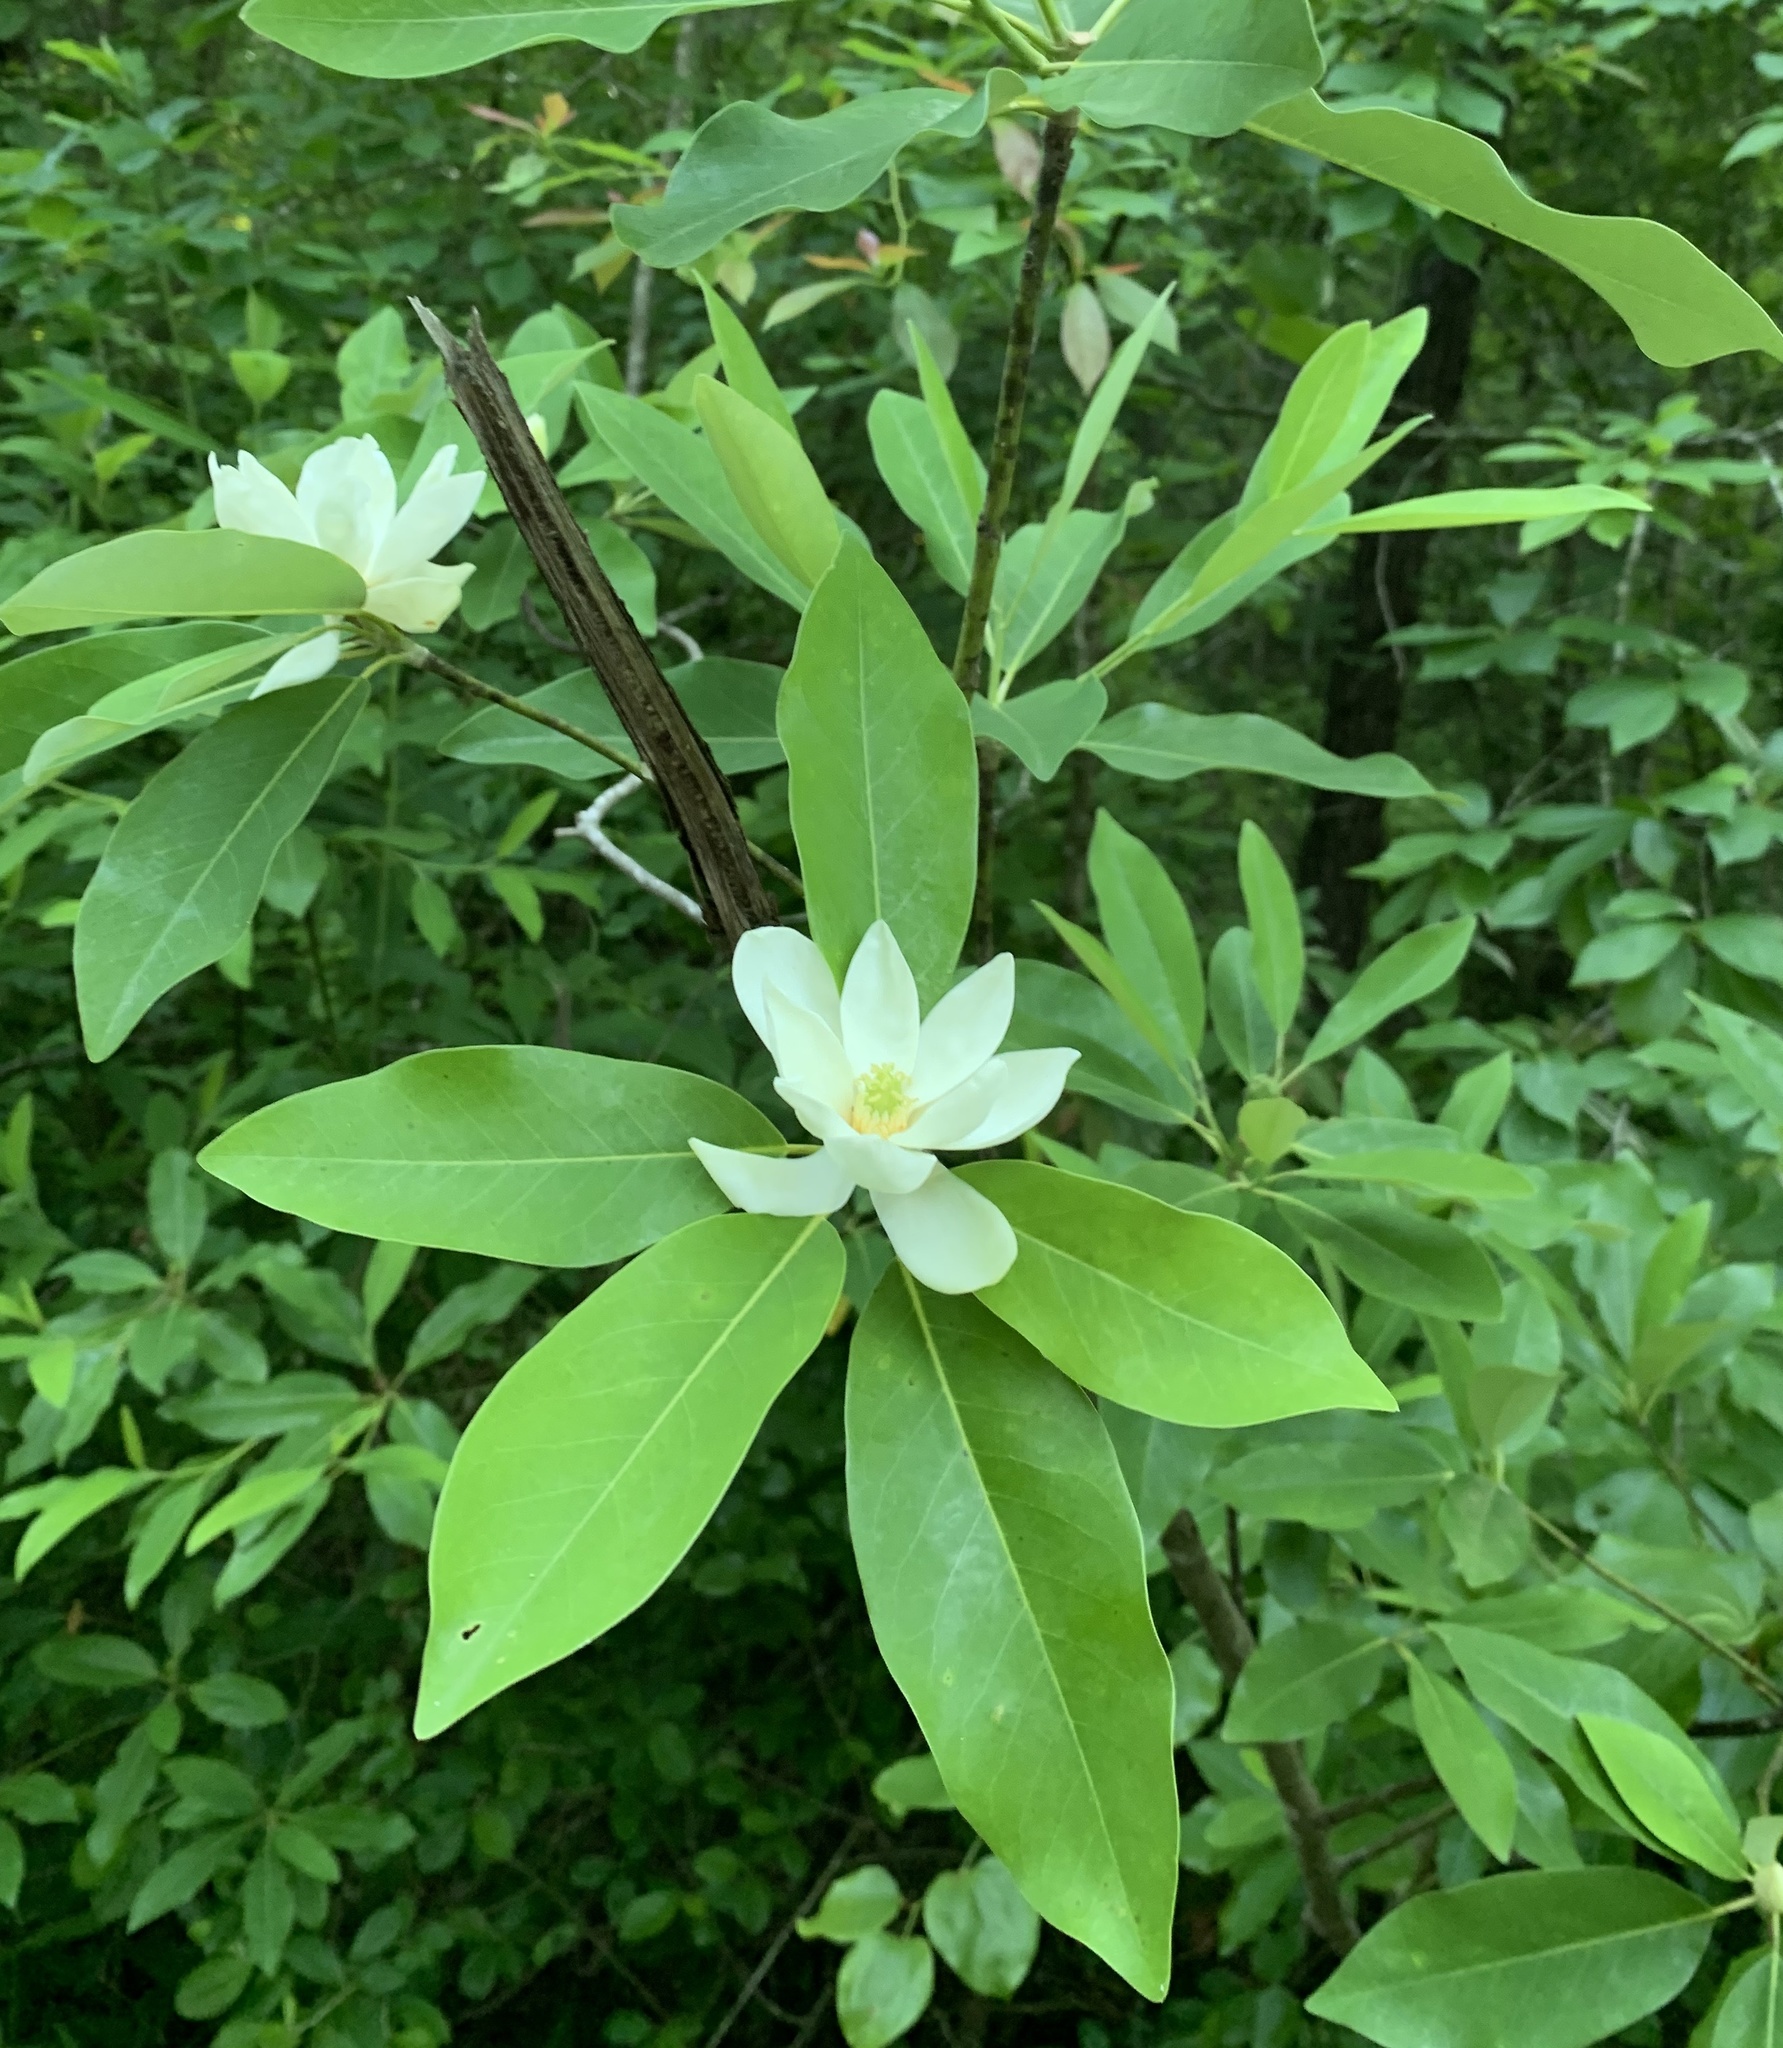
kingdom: Plantae
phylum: Tracheophyta
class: Magnoliopsida
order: Magnoliales
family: Magnoliaceae
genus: Magnolia
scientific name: Magnolia virginiana
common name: Swamp bay
